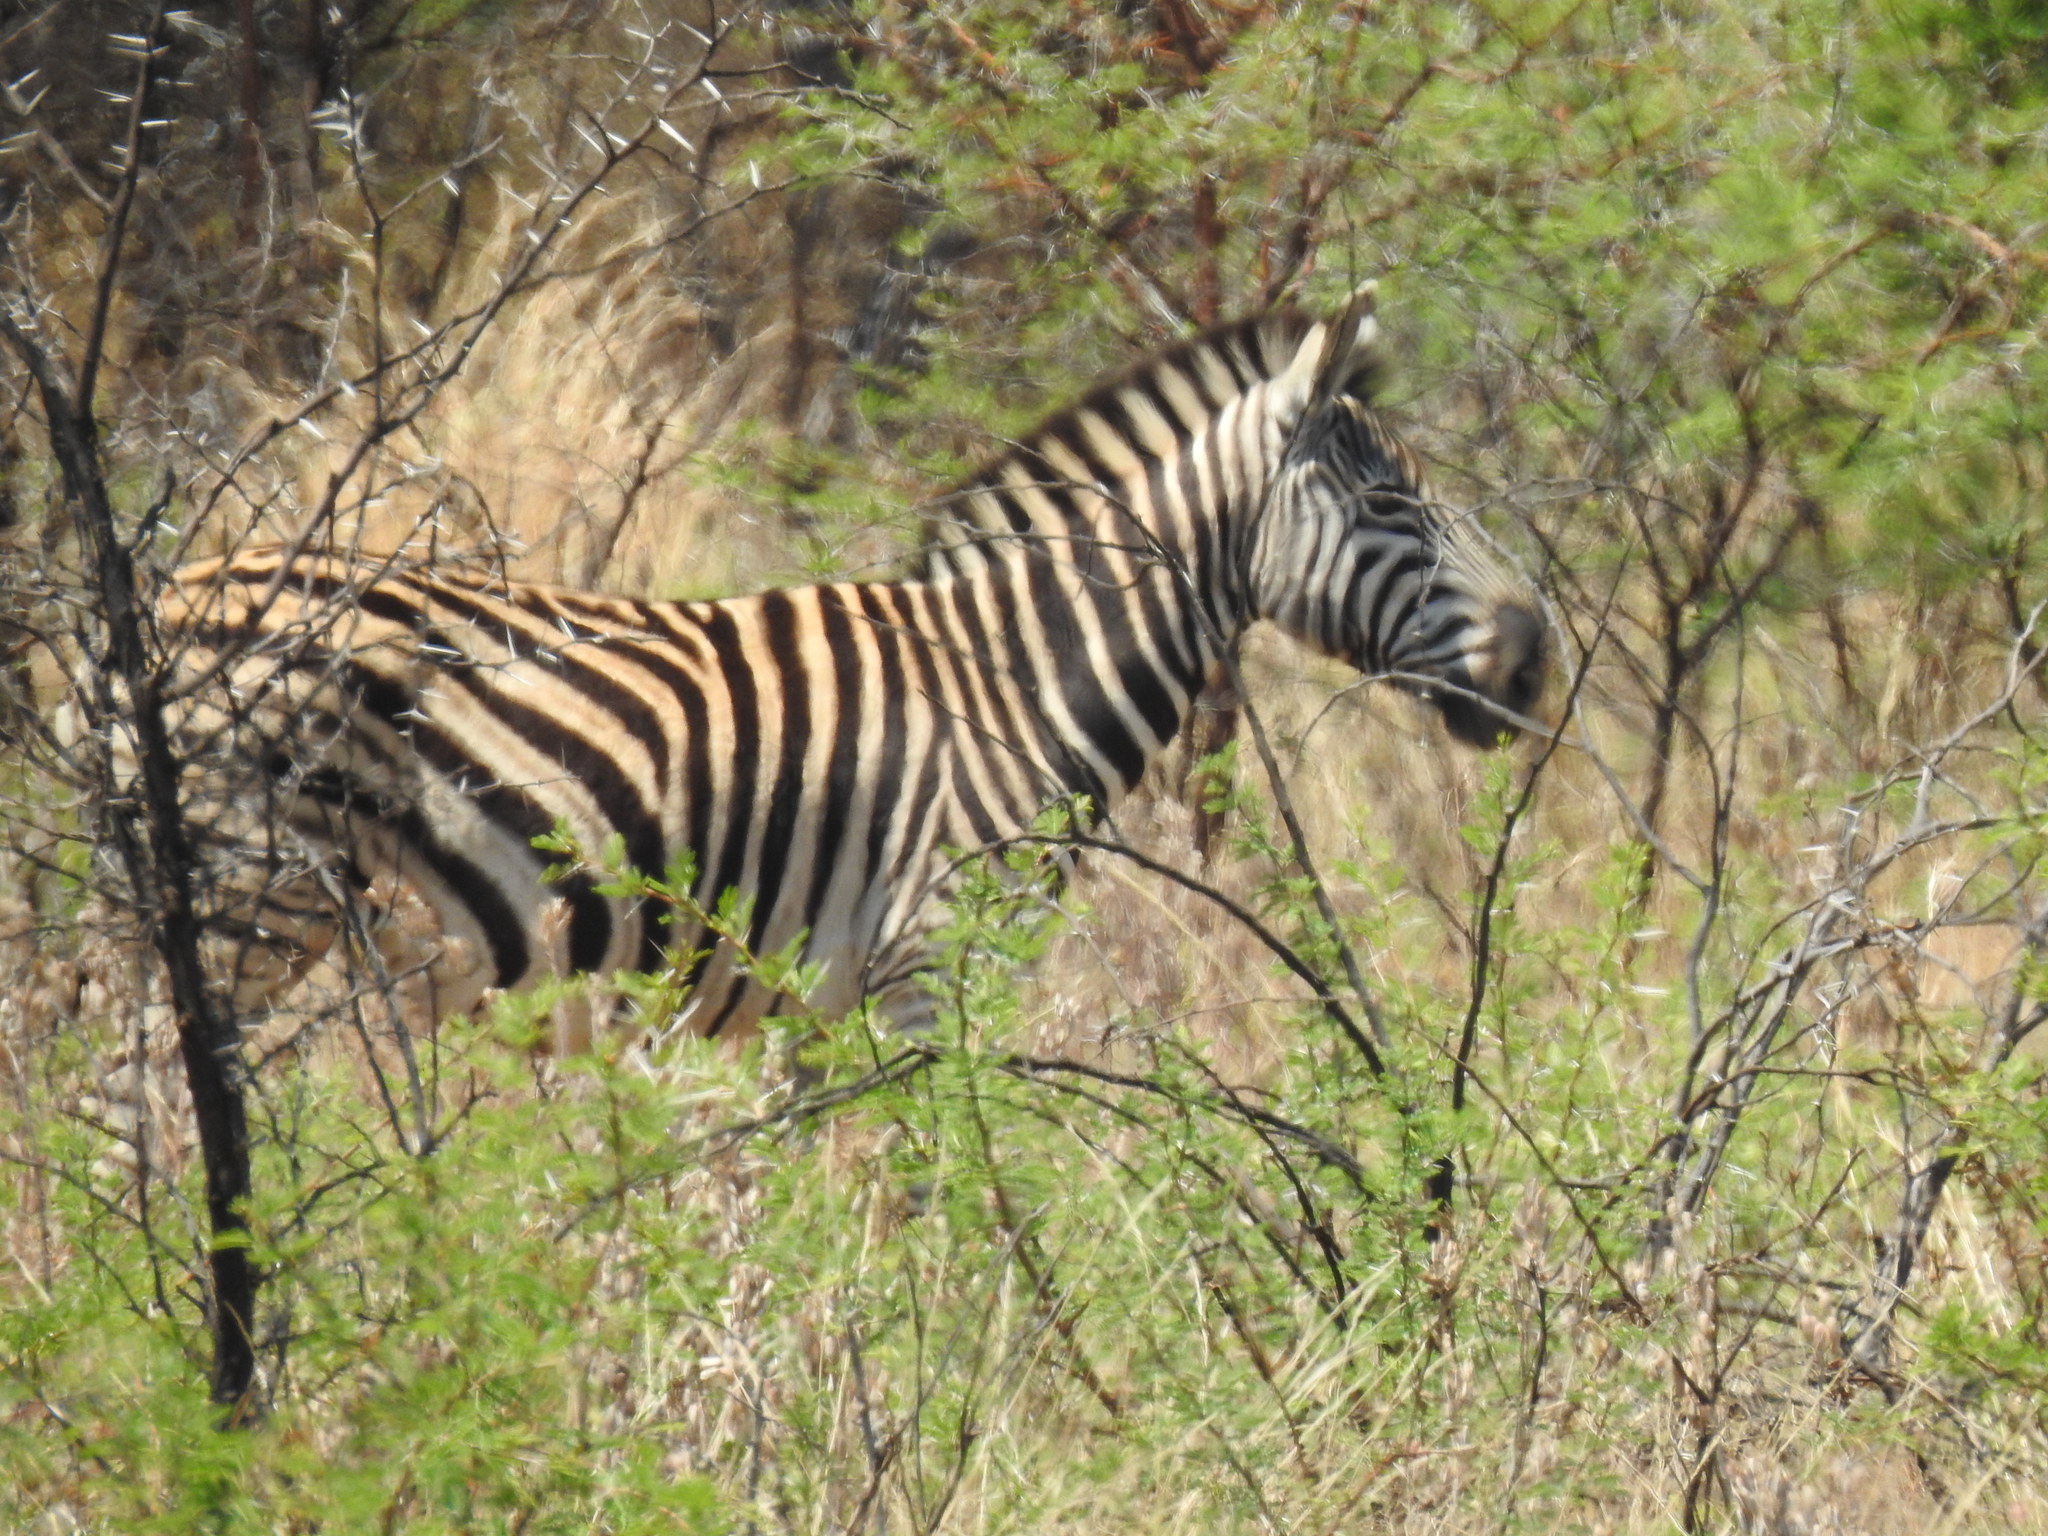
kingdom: Animalia
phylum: Chordata
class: Mammalia
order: Perissodactyla
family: Equidae
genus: Equus
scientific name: Equus quagga
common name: Plains zebra
